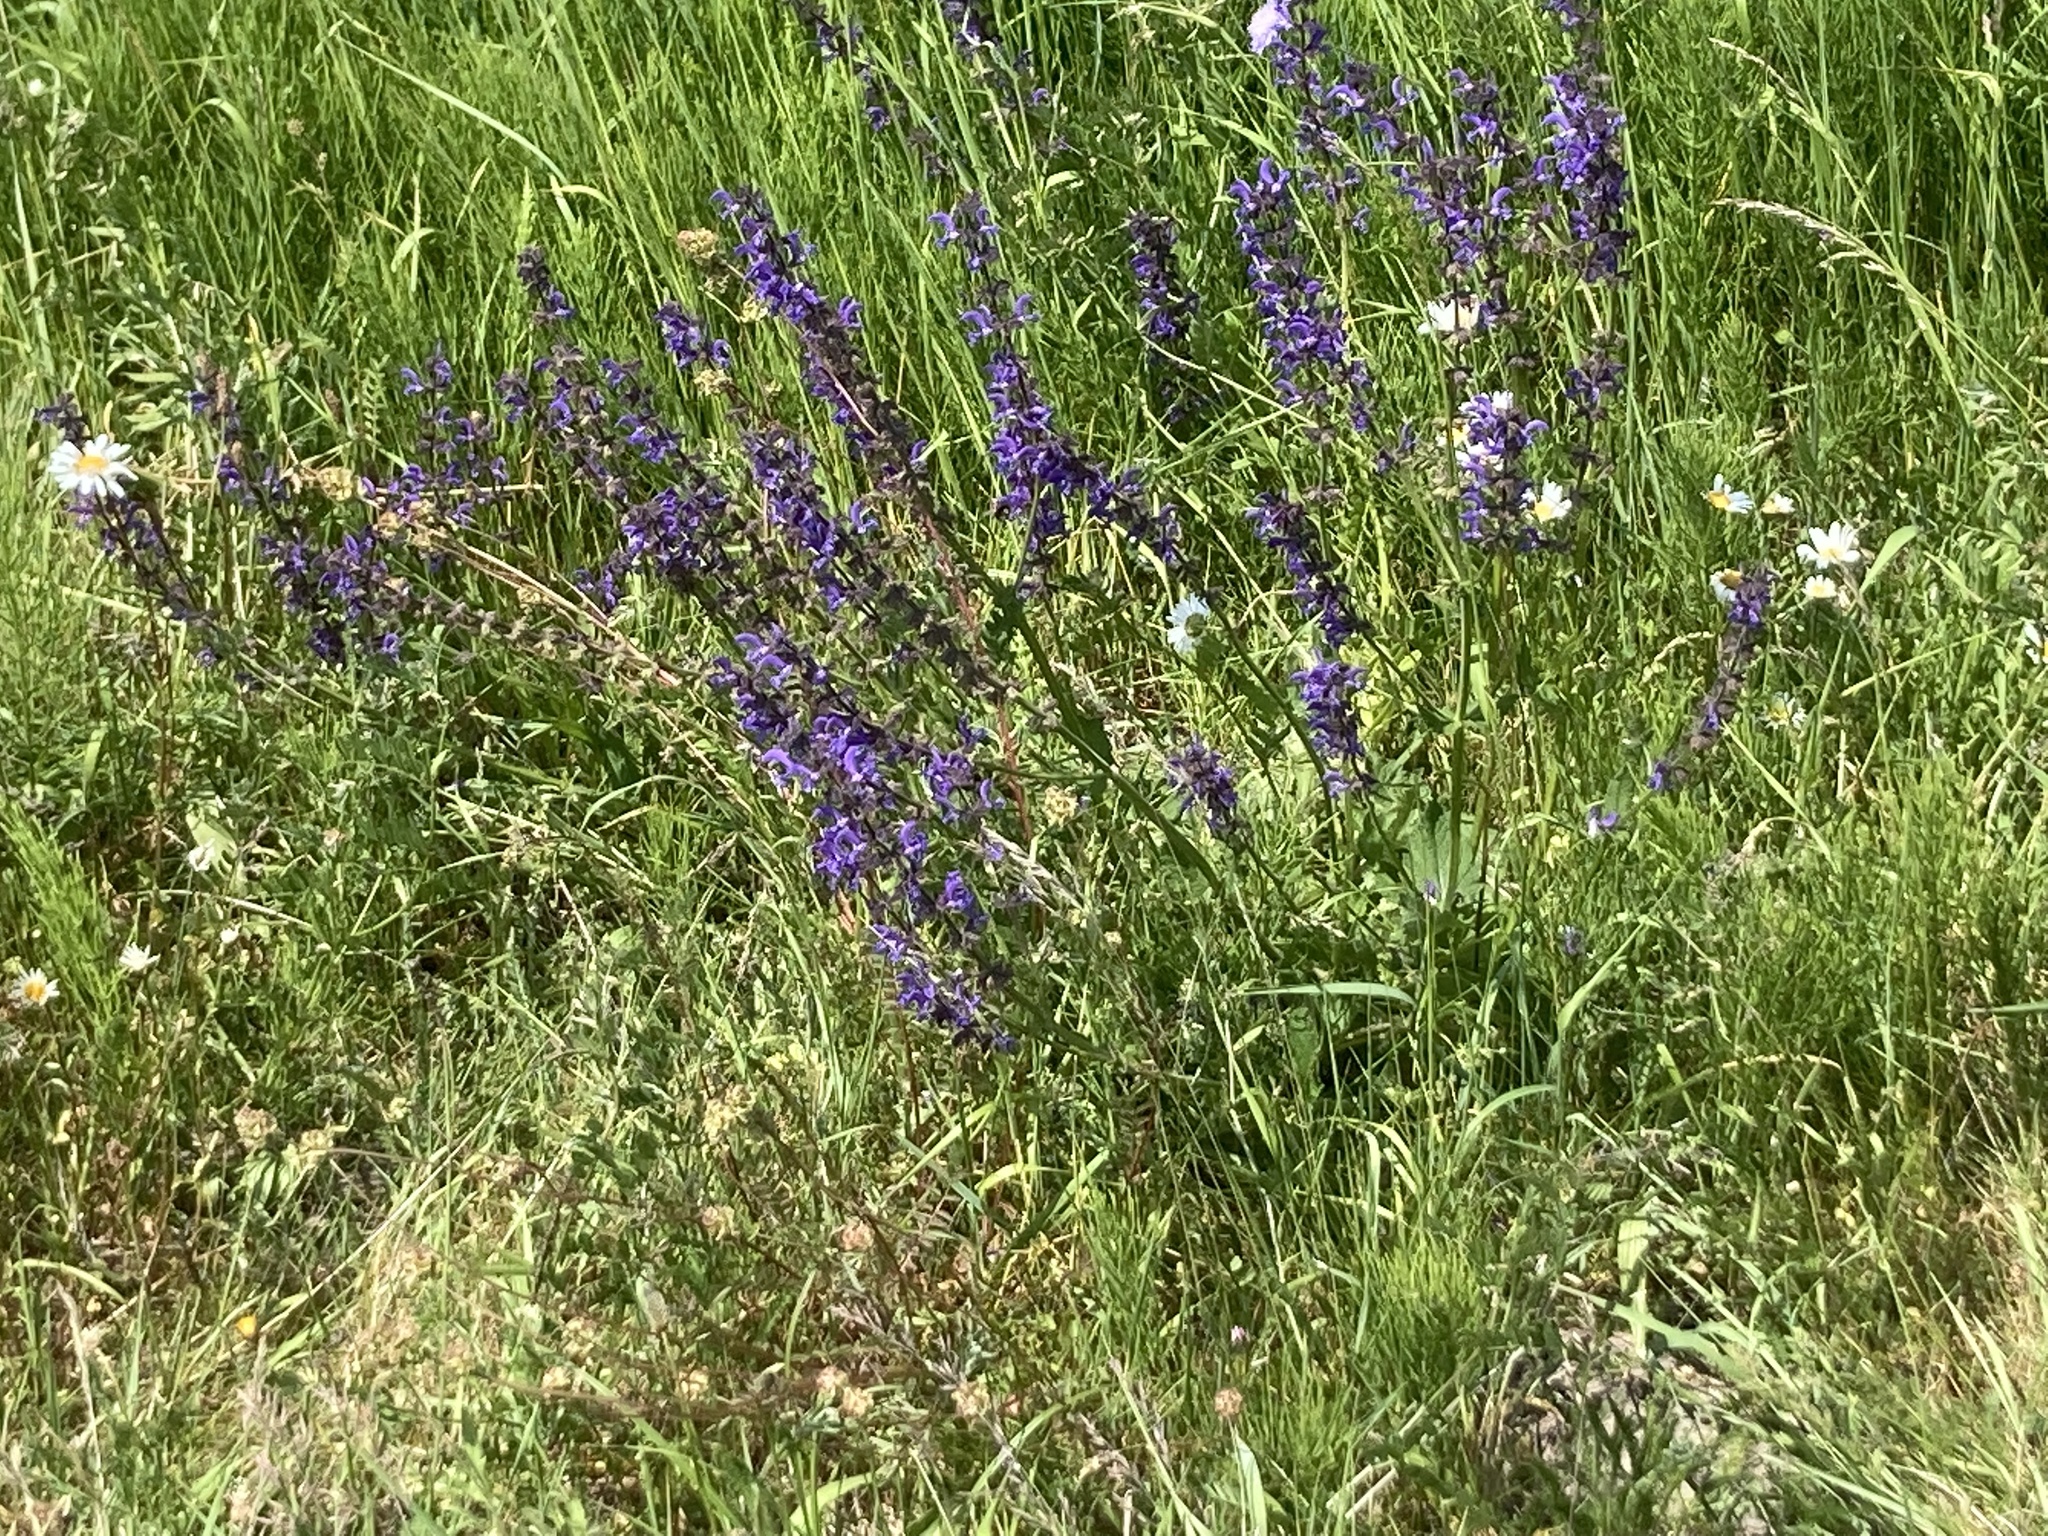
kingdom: Plantae
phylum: Tracheophyta
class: Magnoliopsida
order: Lamiales
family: Lamiaceae
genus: Salvia
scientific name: Salvia pratensis
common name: Meadow sage
